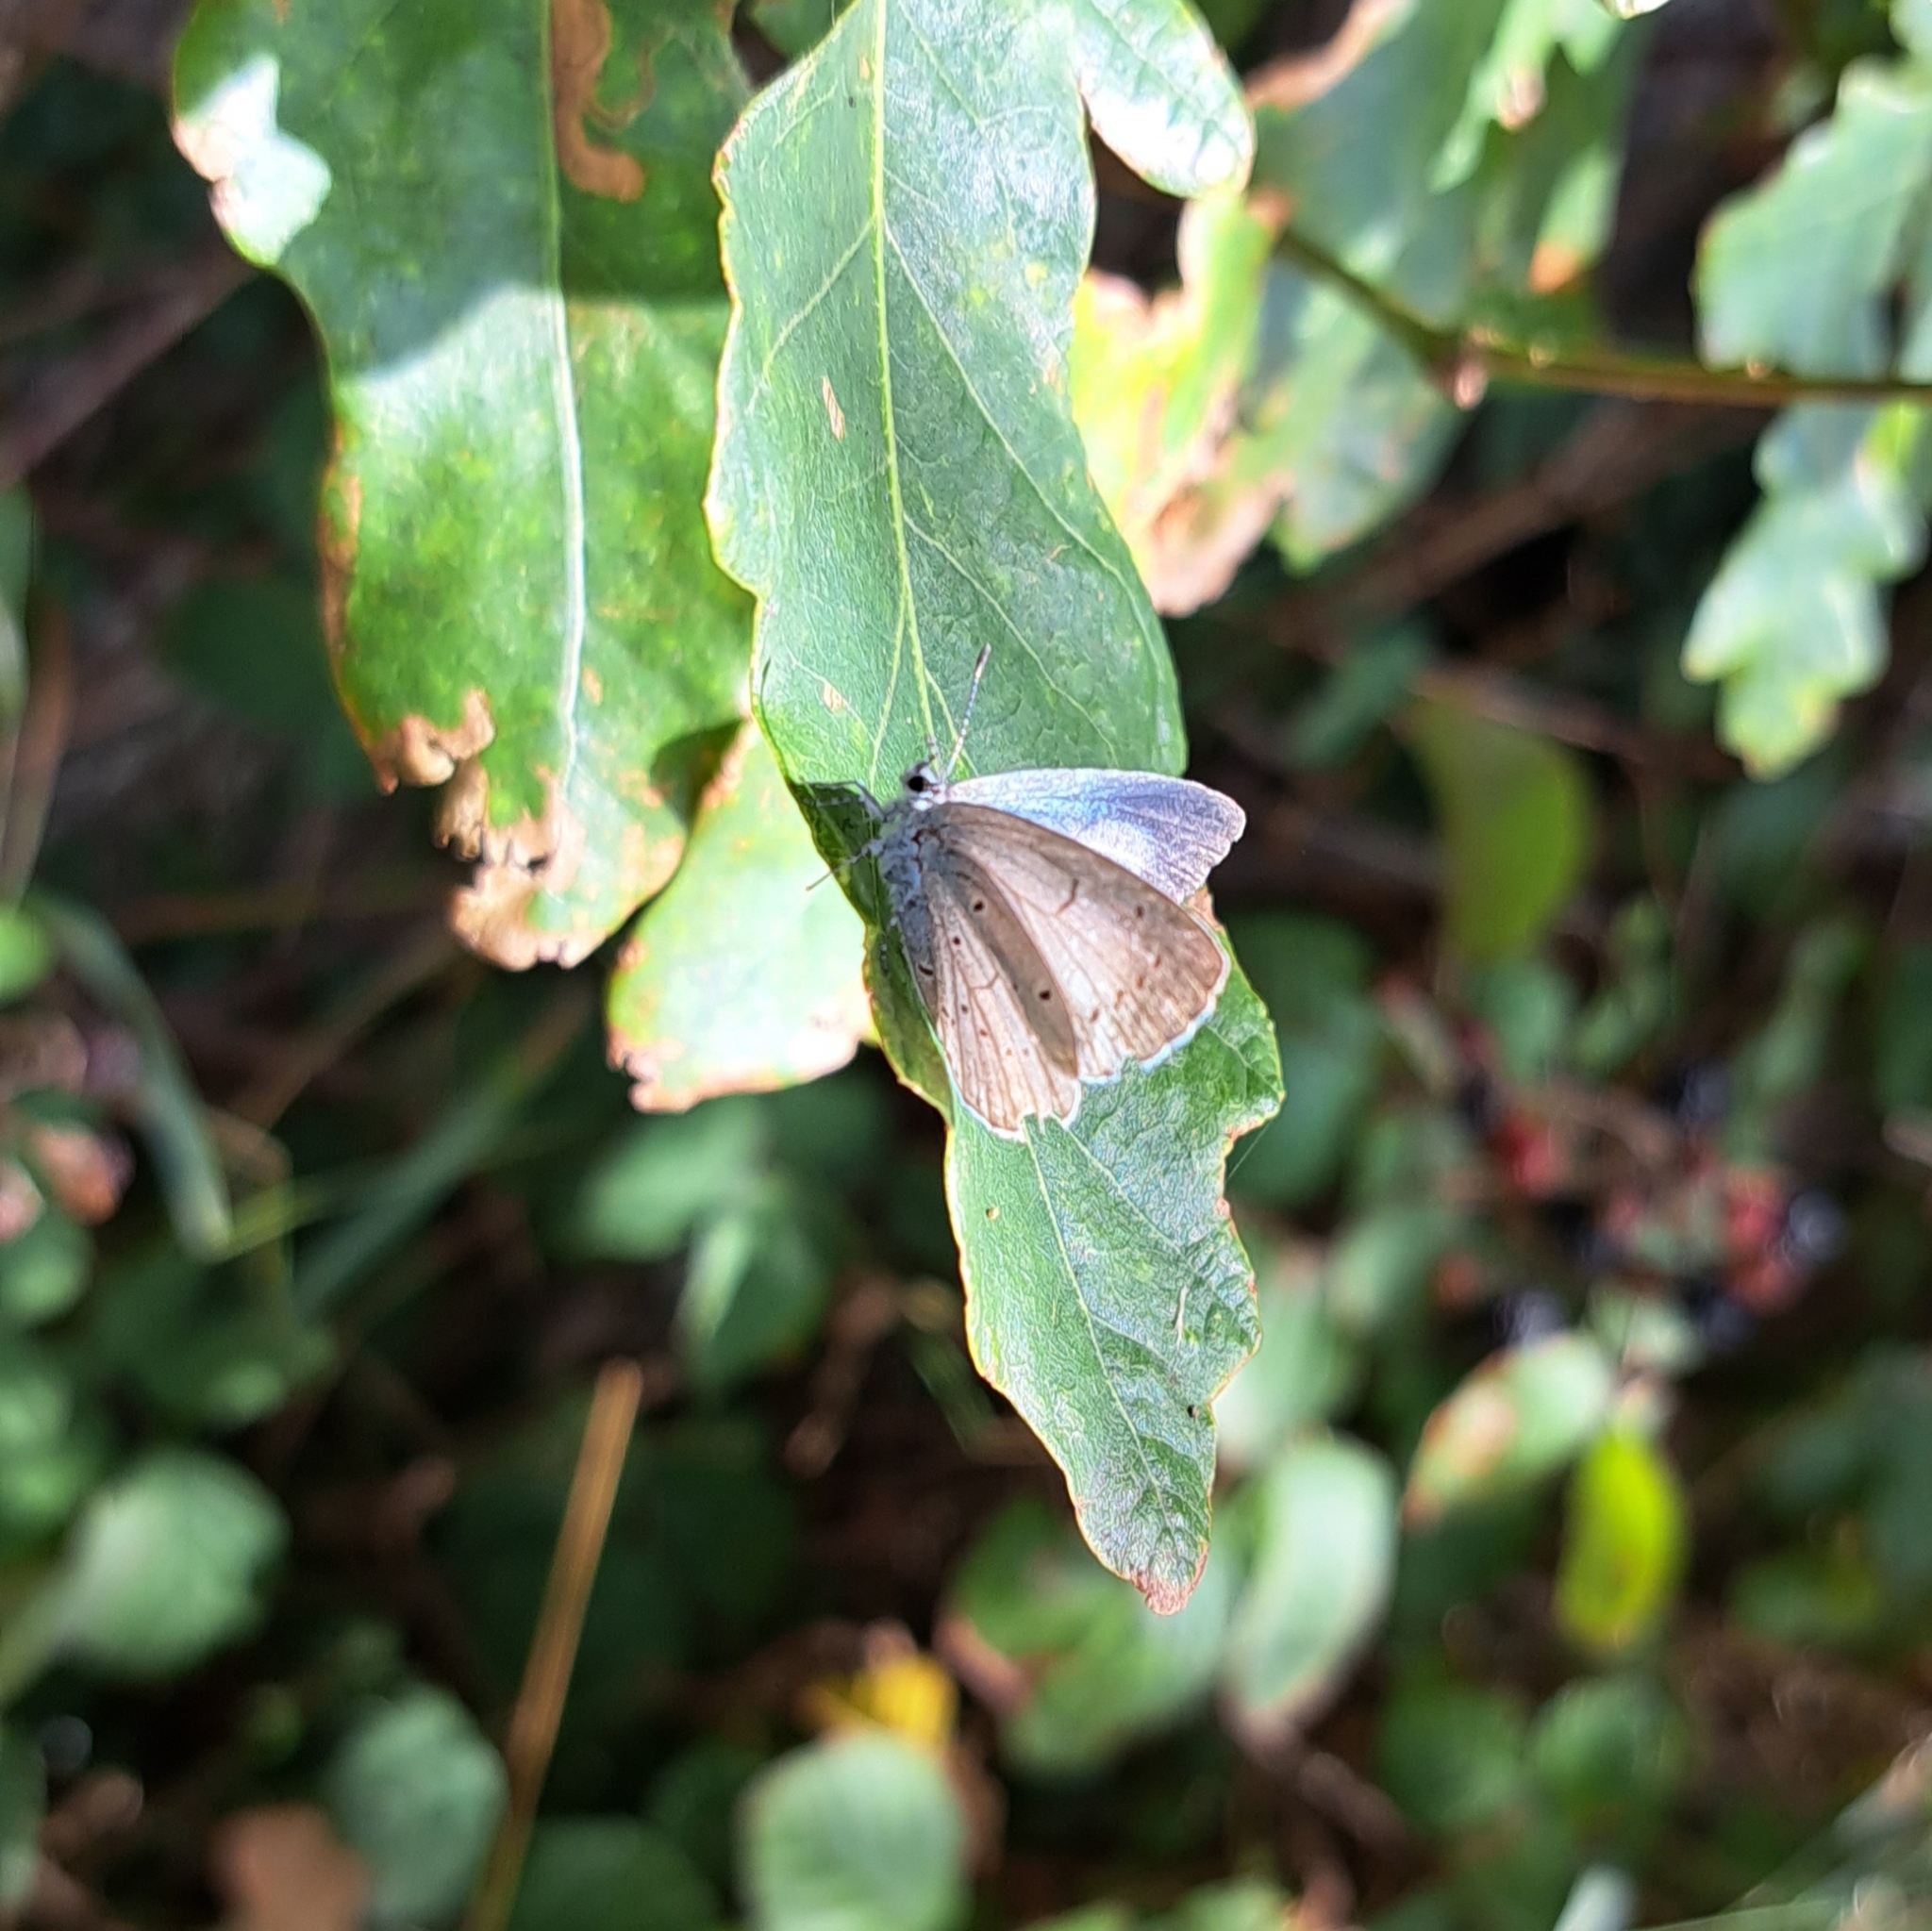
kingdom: Animalia
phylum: Arthropoda
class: Insecta
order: Lepidoptera
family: Lycaenidae
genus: Celastrina
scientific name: Celastrina argiolus
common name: Holly blue
